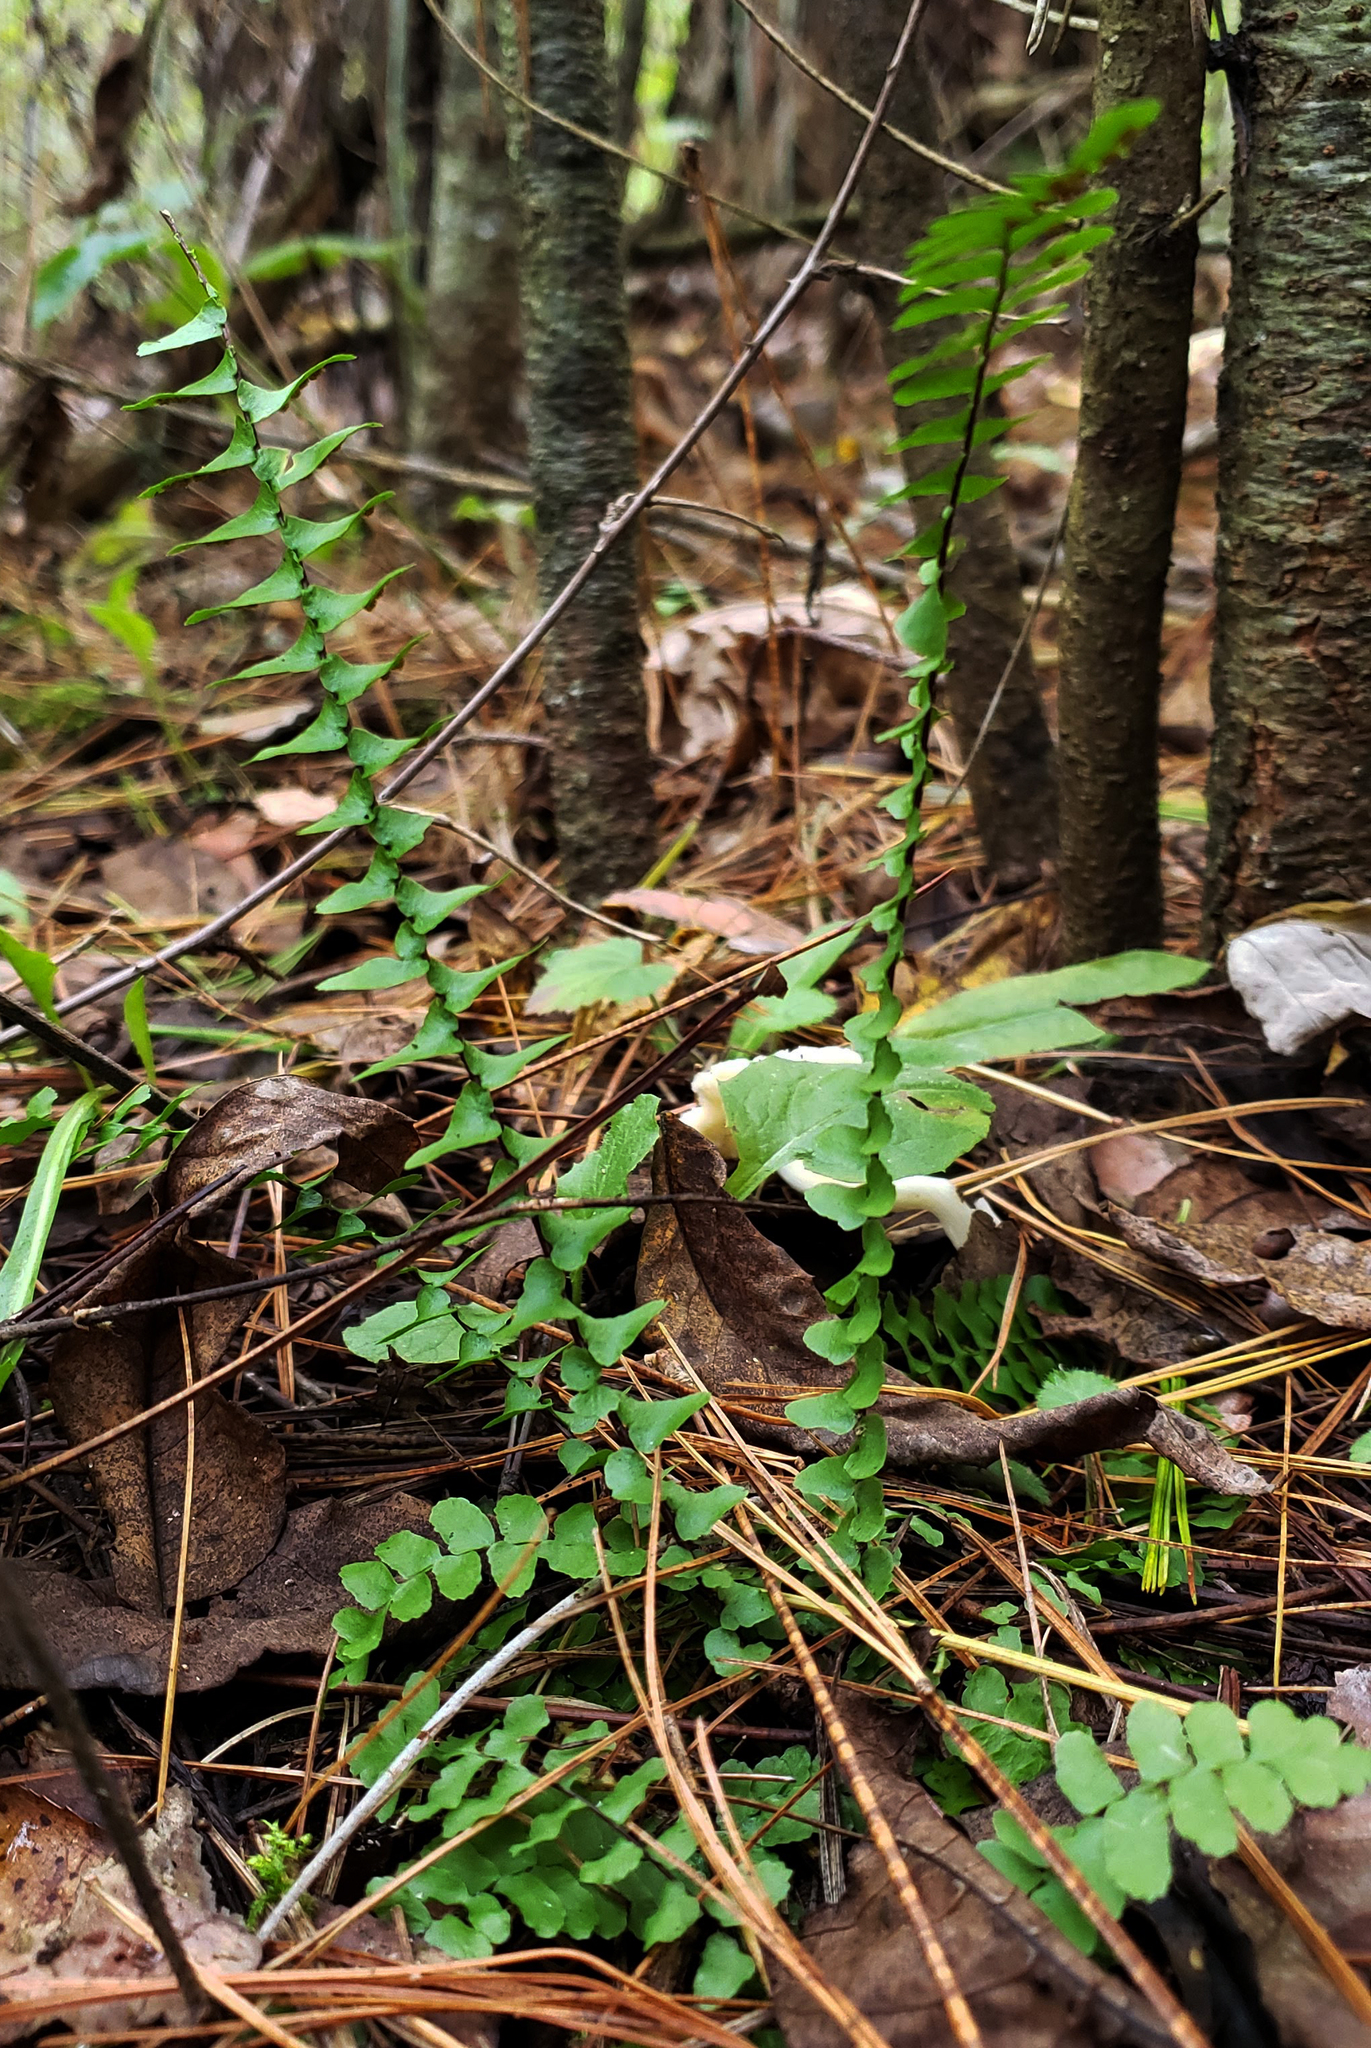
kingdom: Plantae
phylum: Tracheophyta
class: Polypodiopsida
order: Polypodiales
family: Aspleniaceae
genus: Asplenium
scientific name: Asplenium platyneuron
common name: Ebony spleenwort
